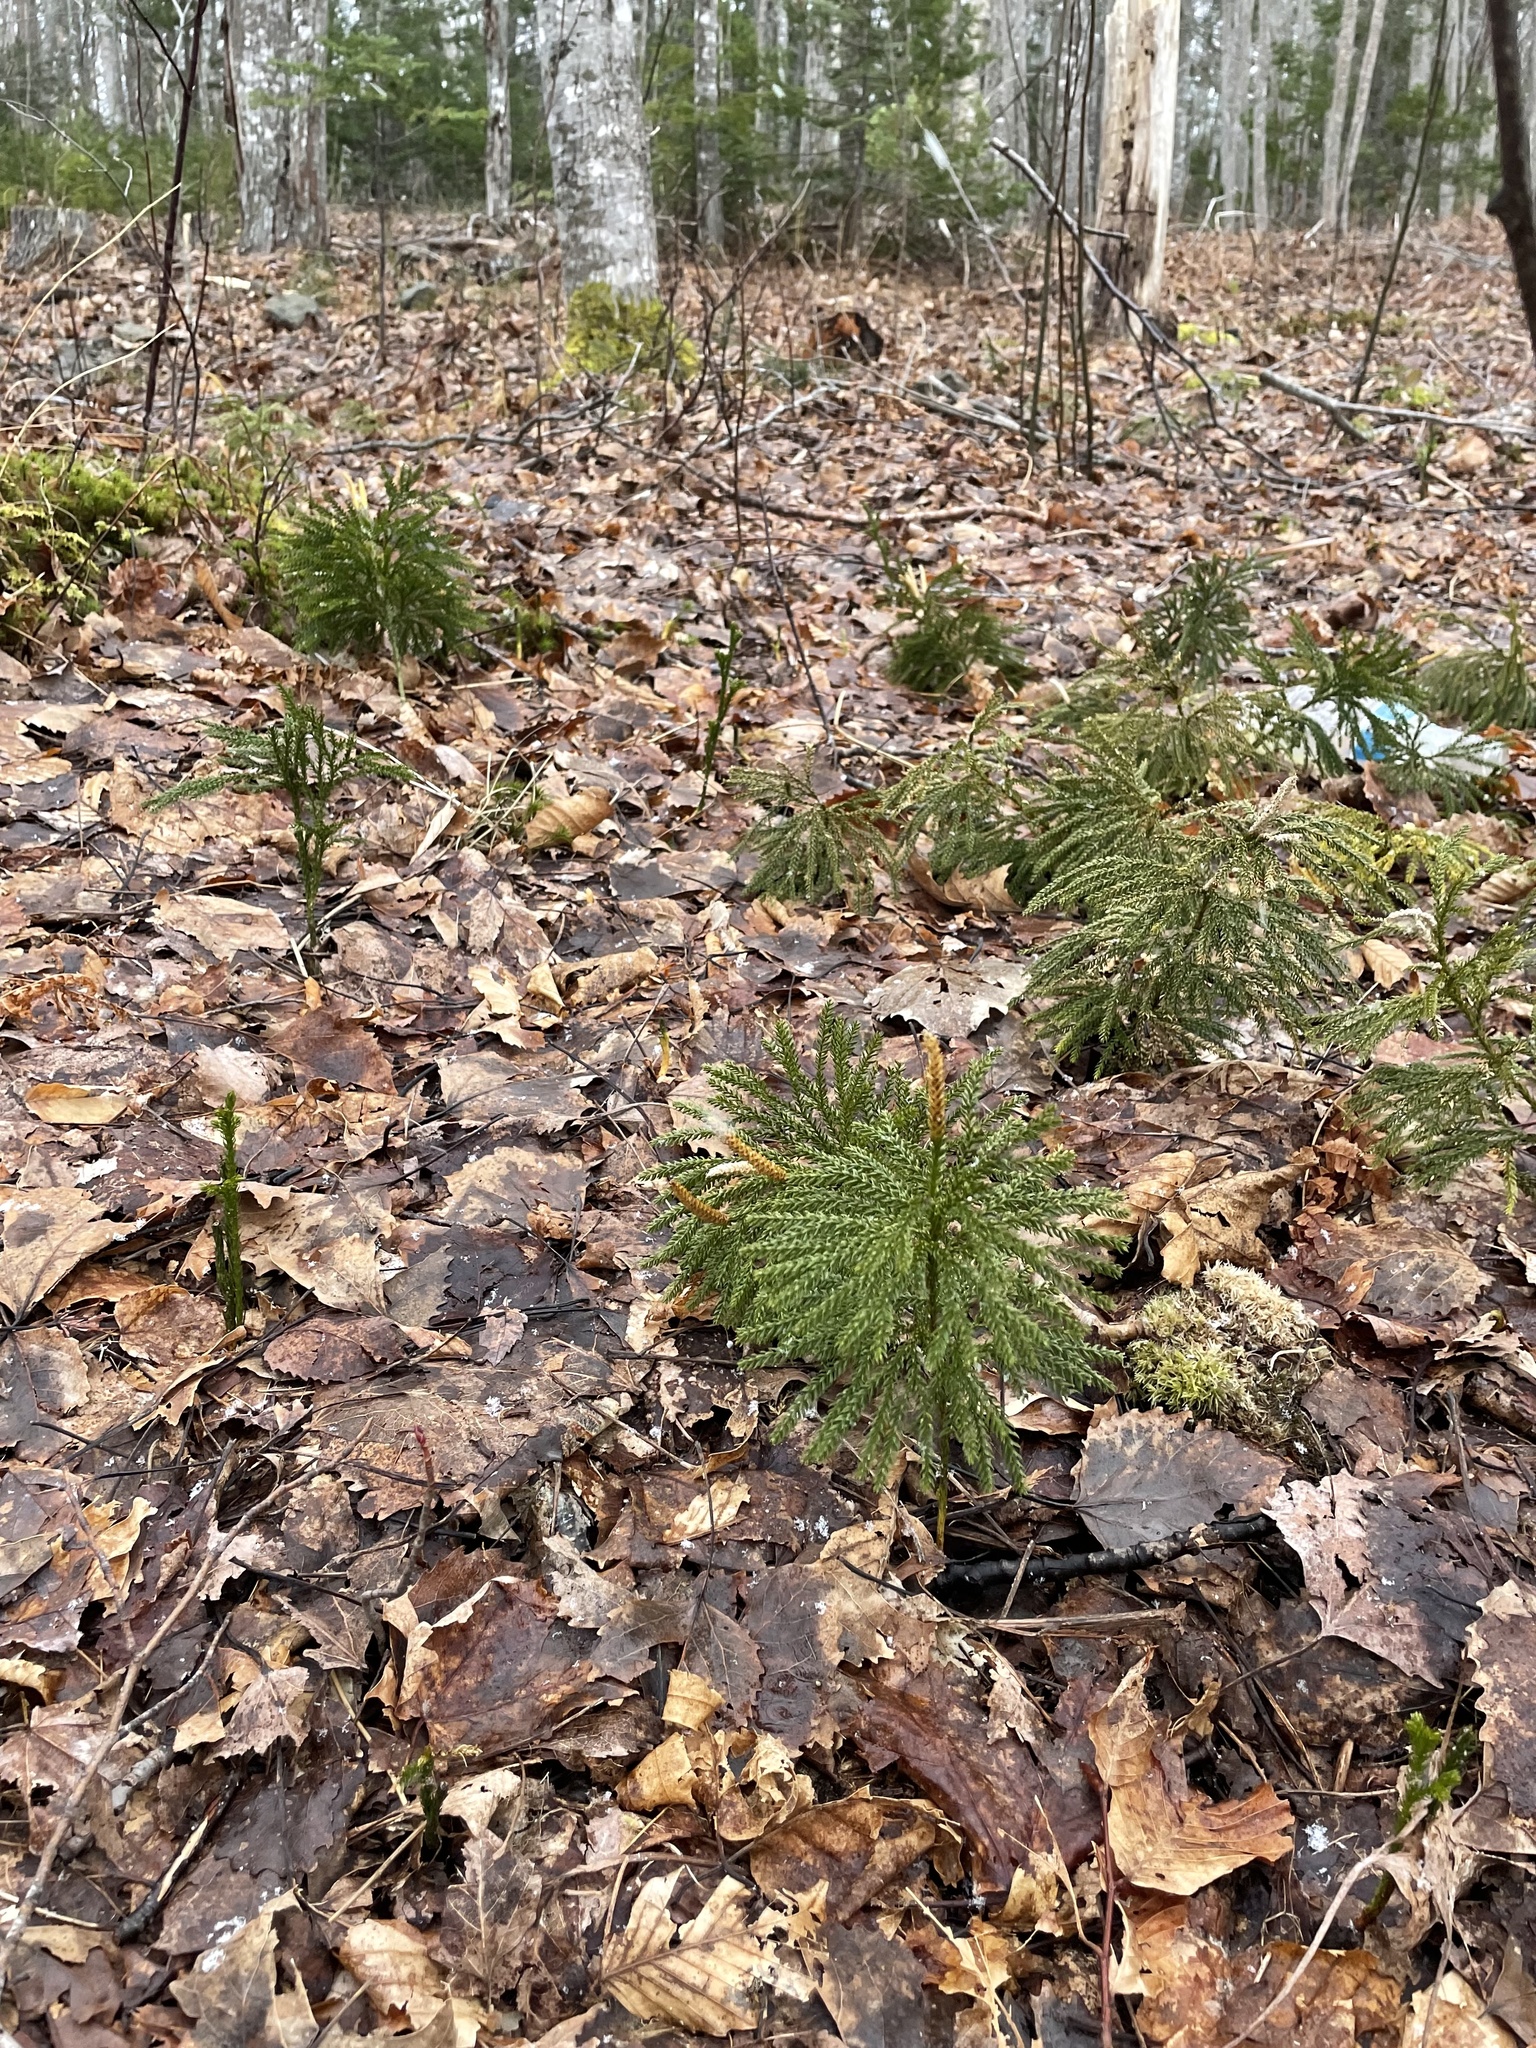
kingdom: Plantae
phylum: Tracheophyta
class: Lycopodiopsida
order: Lycopodiales
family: Lycopodiaceae
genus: Dendrolycopodium
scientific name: Dendrolycopodium dendroideum
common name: Northern tree-clubmoss
